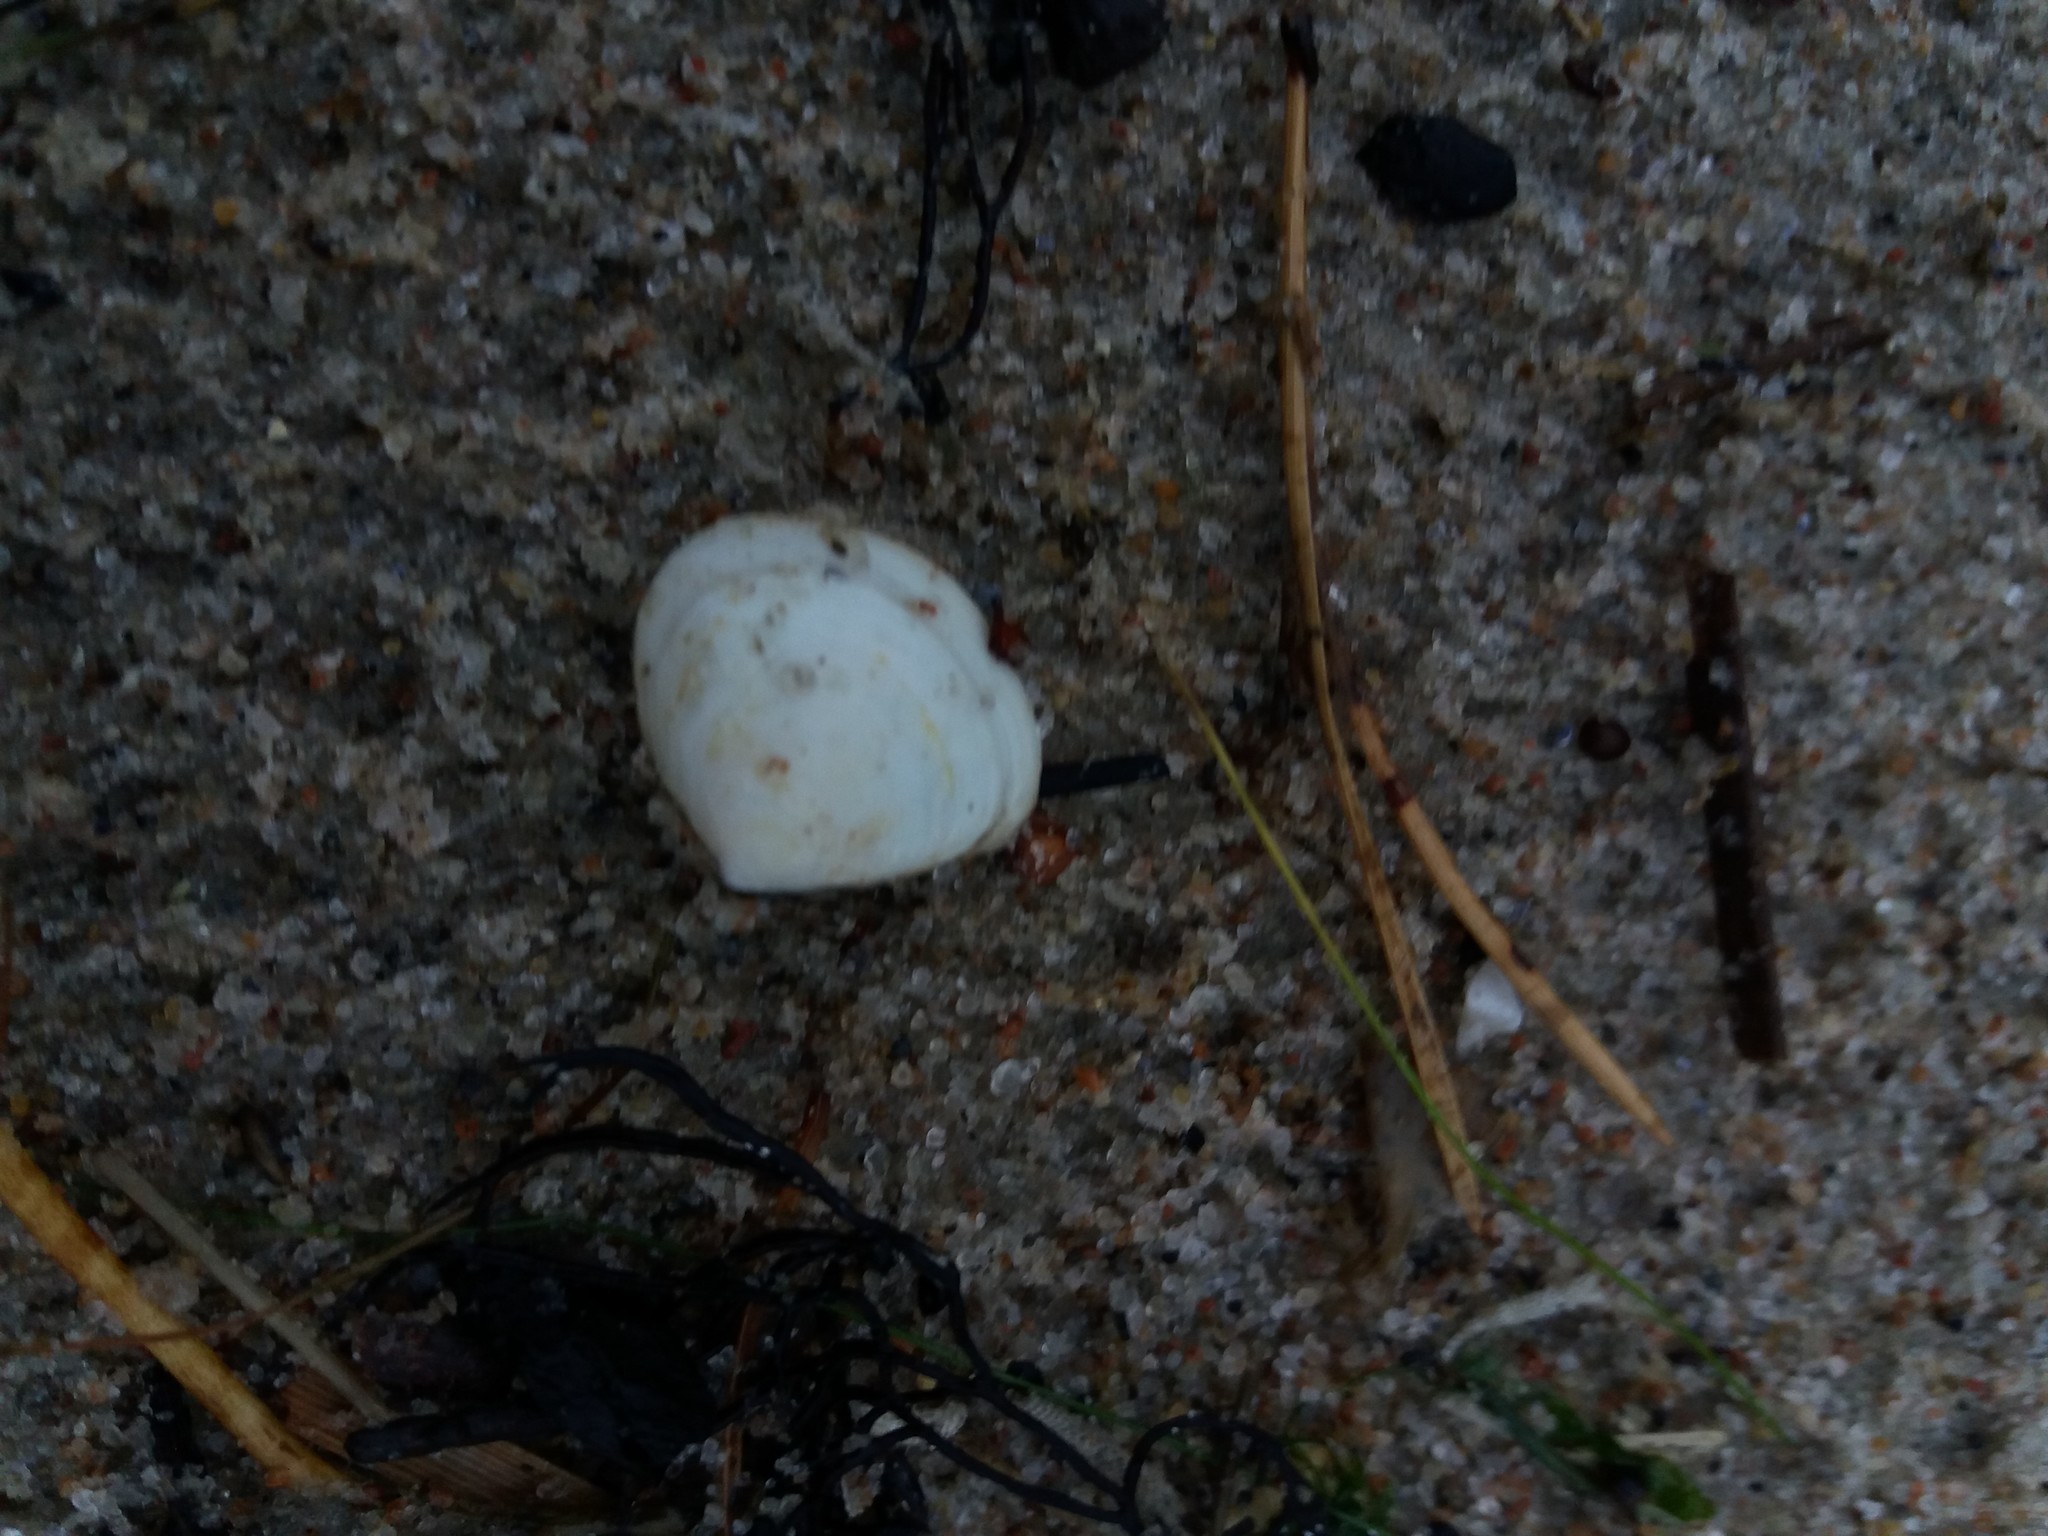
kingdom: Animalia
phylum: Mollusca
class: Bivalvia
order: Cardiida
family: Tellinidae
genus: Macoma
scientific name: Macoma balthica
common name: Baltic tellin
